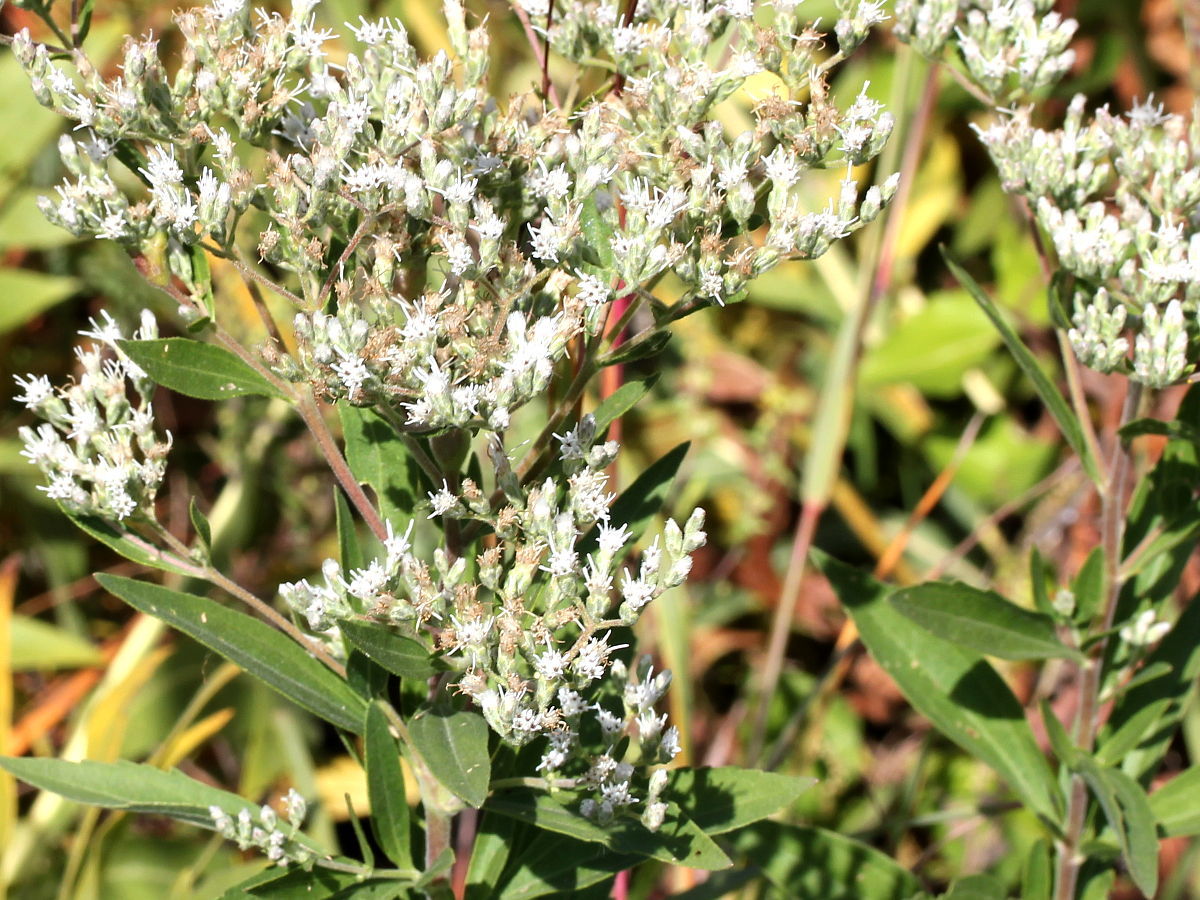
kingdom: Plantae
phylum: Tracheophyta
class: Magnoliopsida
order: Asterales
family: Asteraceae
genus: Eupatorium
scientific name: Eupatorium altissimum
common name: Tall thoroughwort
